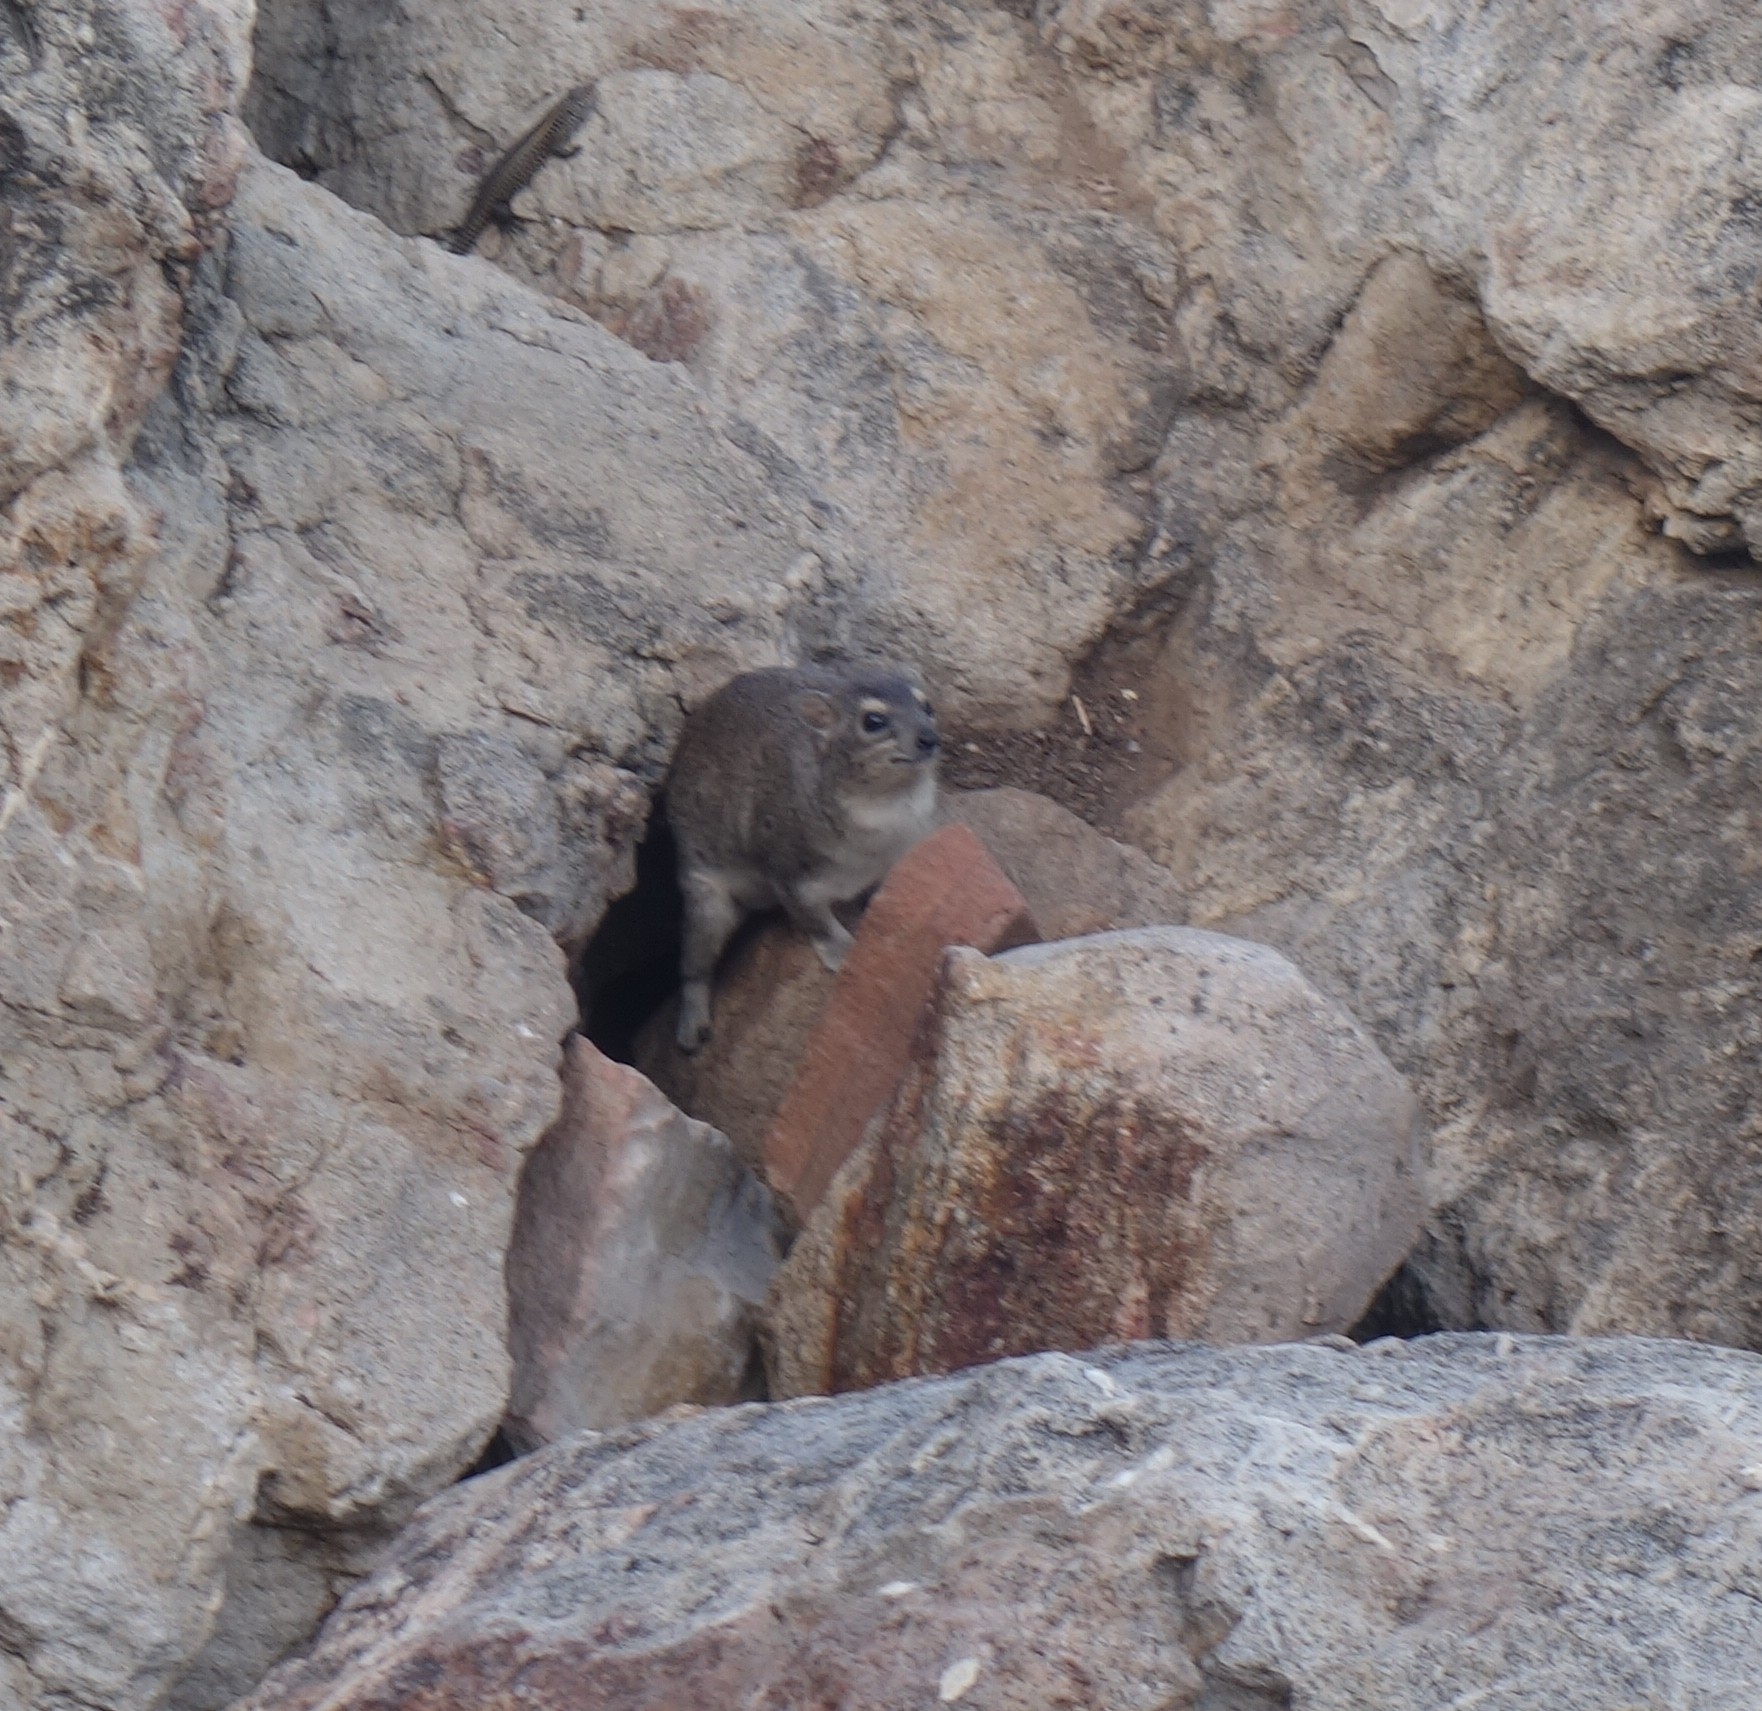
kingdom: Animalia
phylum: Chordata
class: Mammalia
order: Hyracoidea
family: Procaviidae
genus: Heterohyrax
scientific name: Heterohyrax brucei
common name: Bush hyrax
